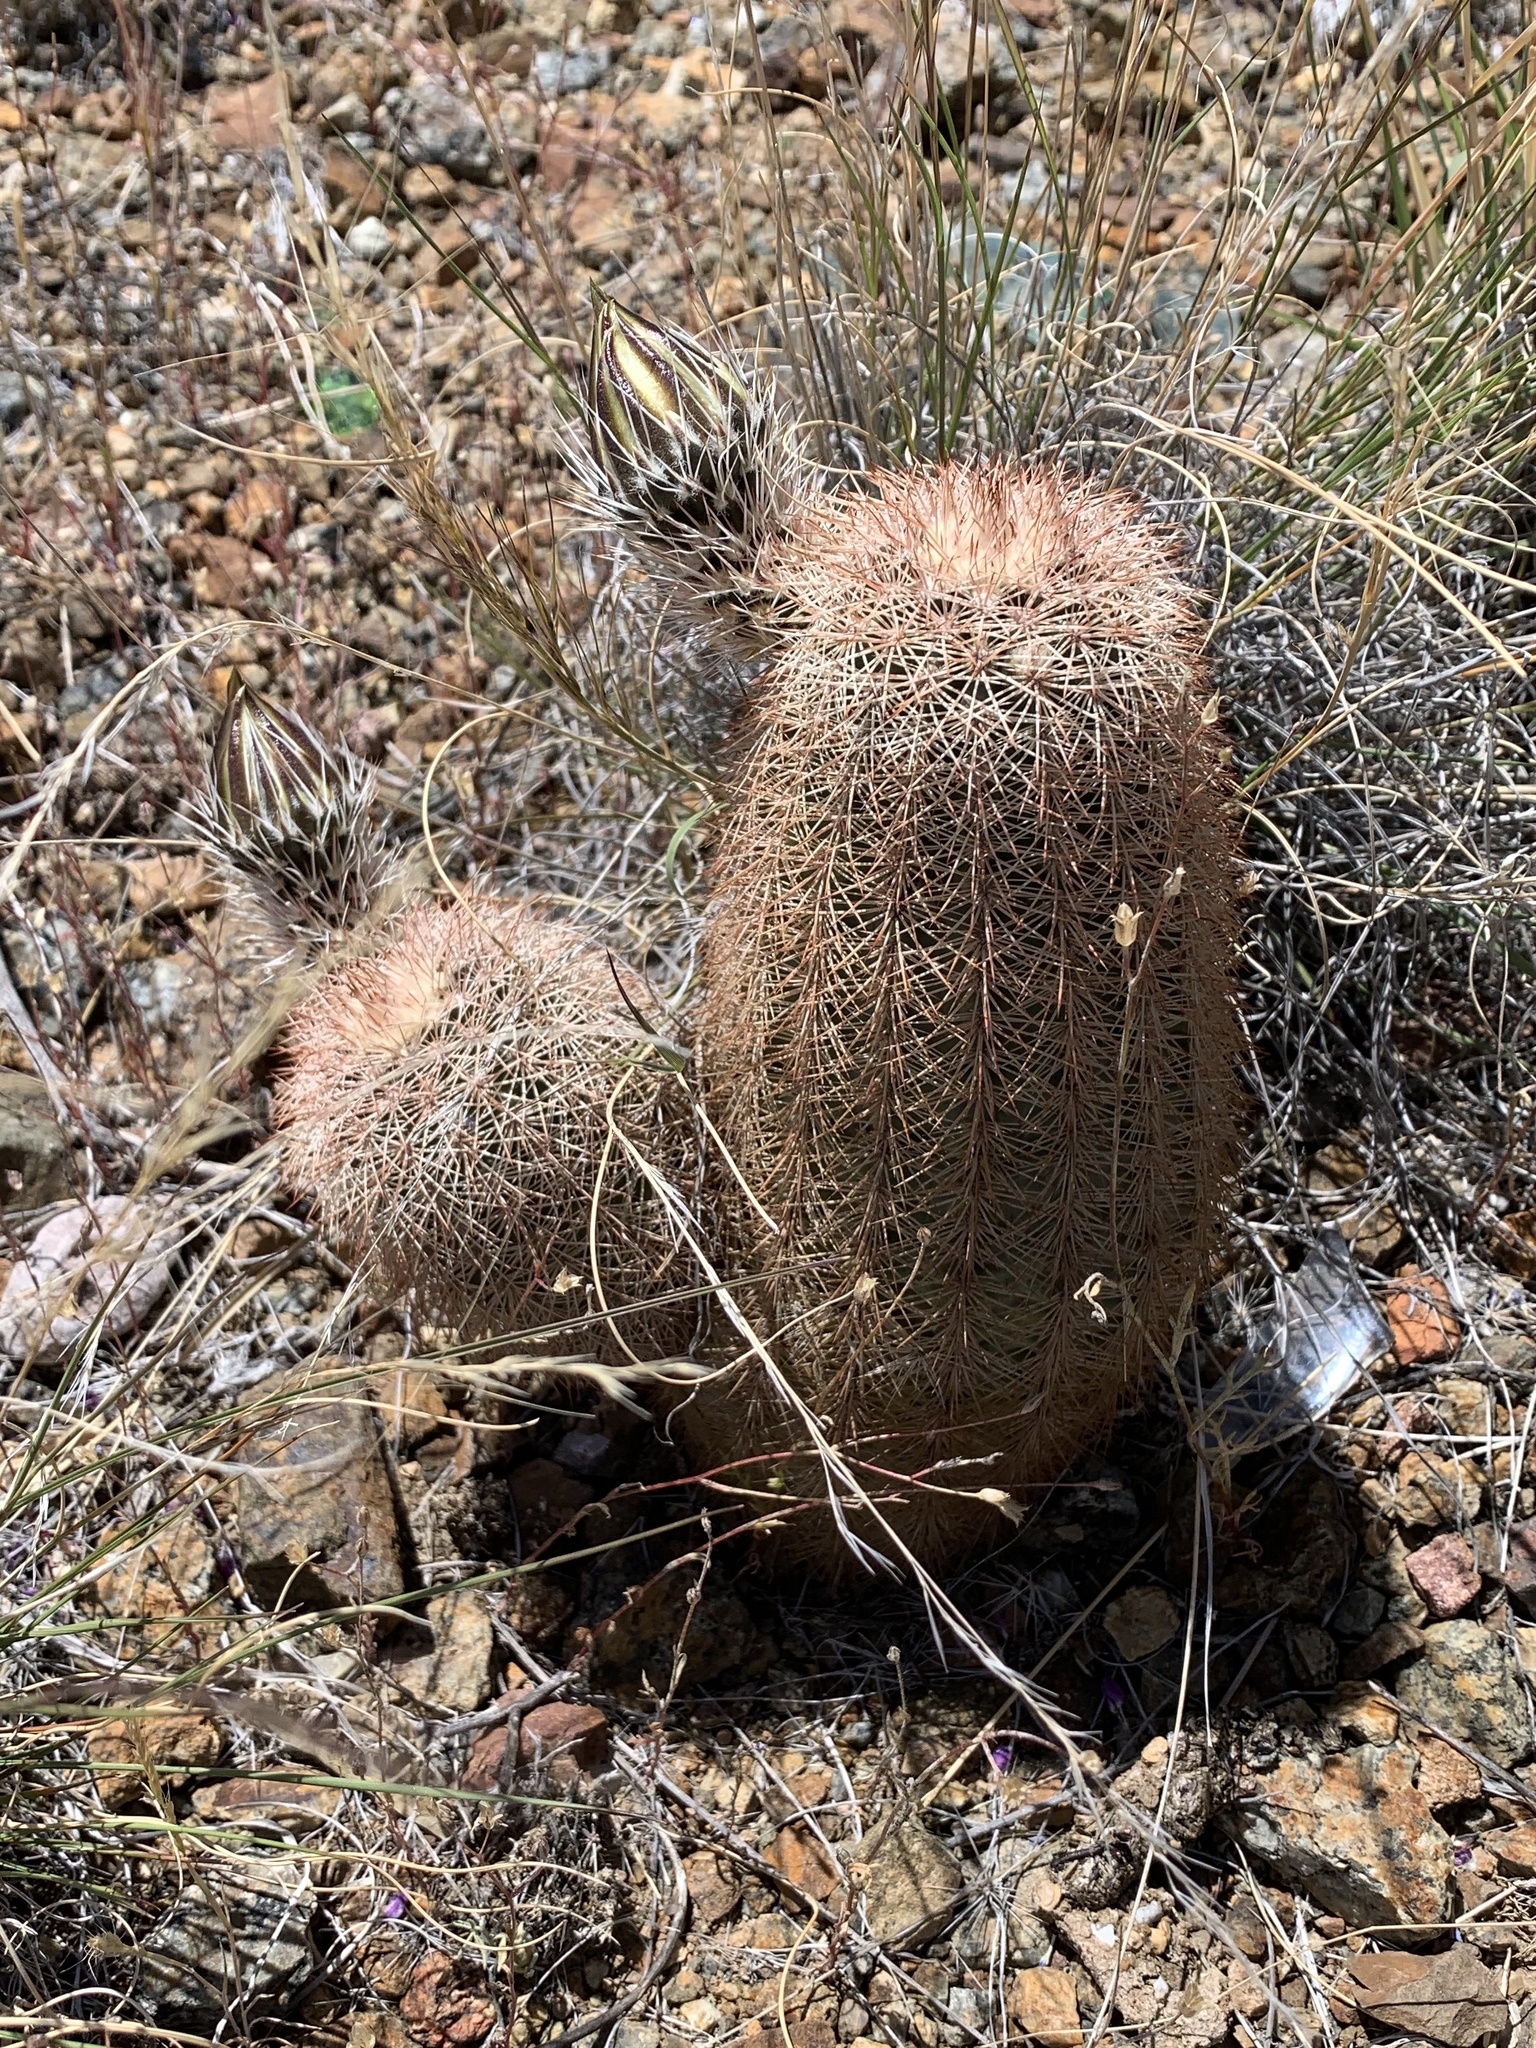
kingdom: Plantae
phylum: Tracheophyta
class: Magnoliopsida
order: Caryophyllales
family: Cactaceae
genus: Echinocereus
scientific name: Echinocereus dasyacanthus
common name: Spiny hedgehog cactus
